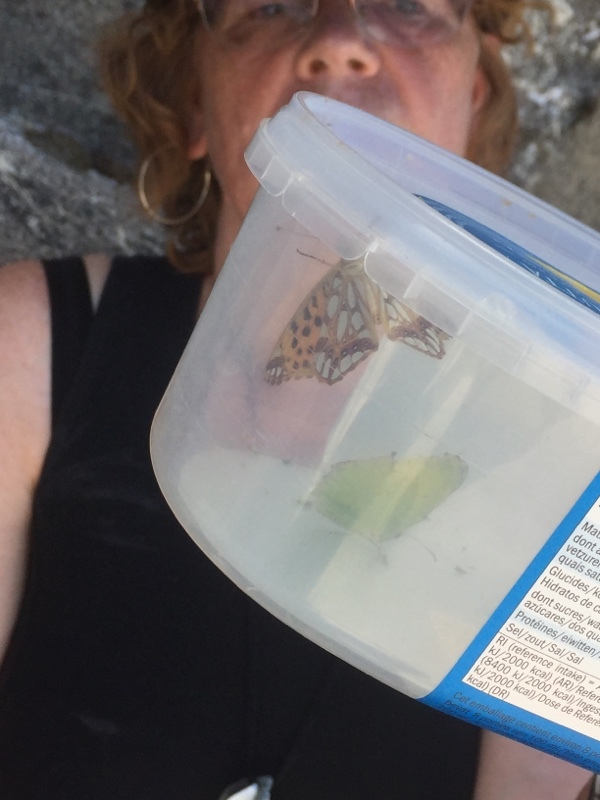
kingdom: Animalia
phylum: Arthropoda
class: Insecta
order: Lepidoptera
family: Nymphalidae
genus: Issoria
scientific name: Issoria lathonia
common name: Queen of spain fritillary
